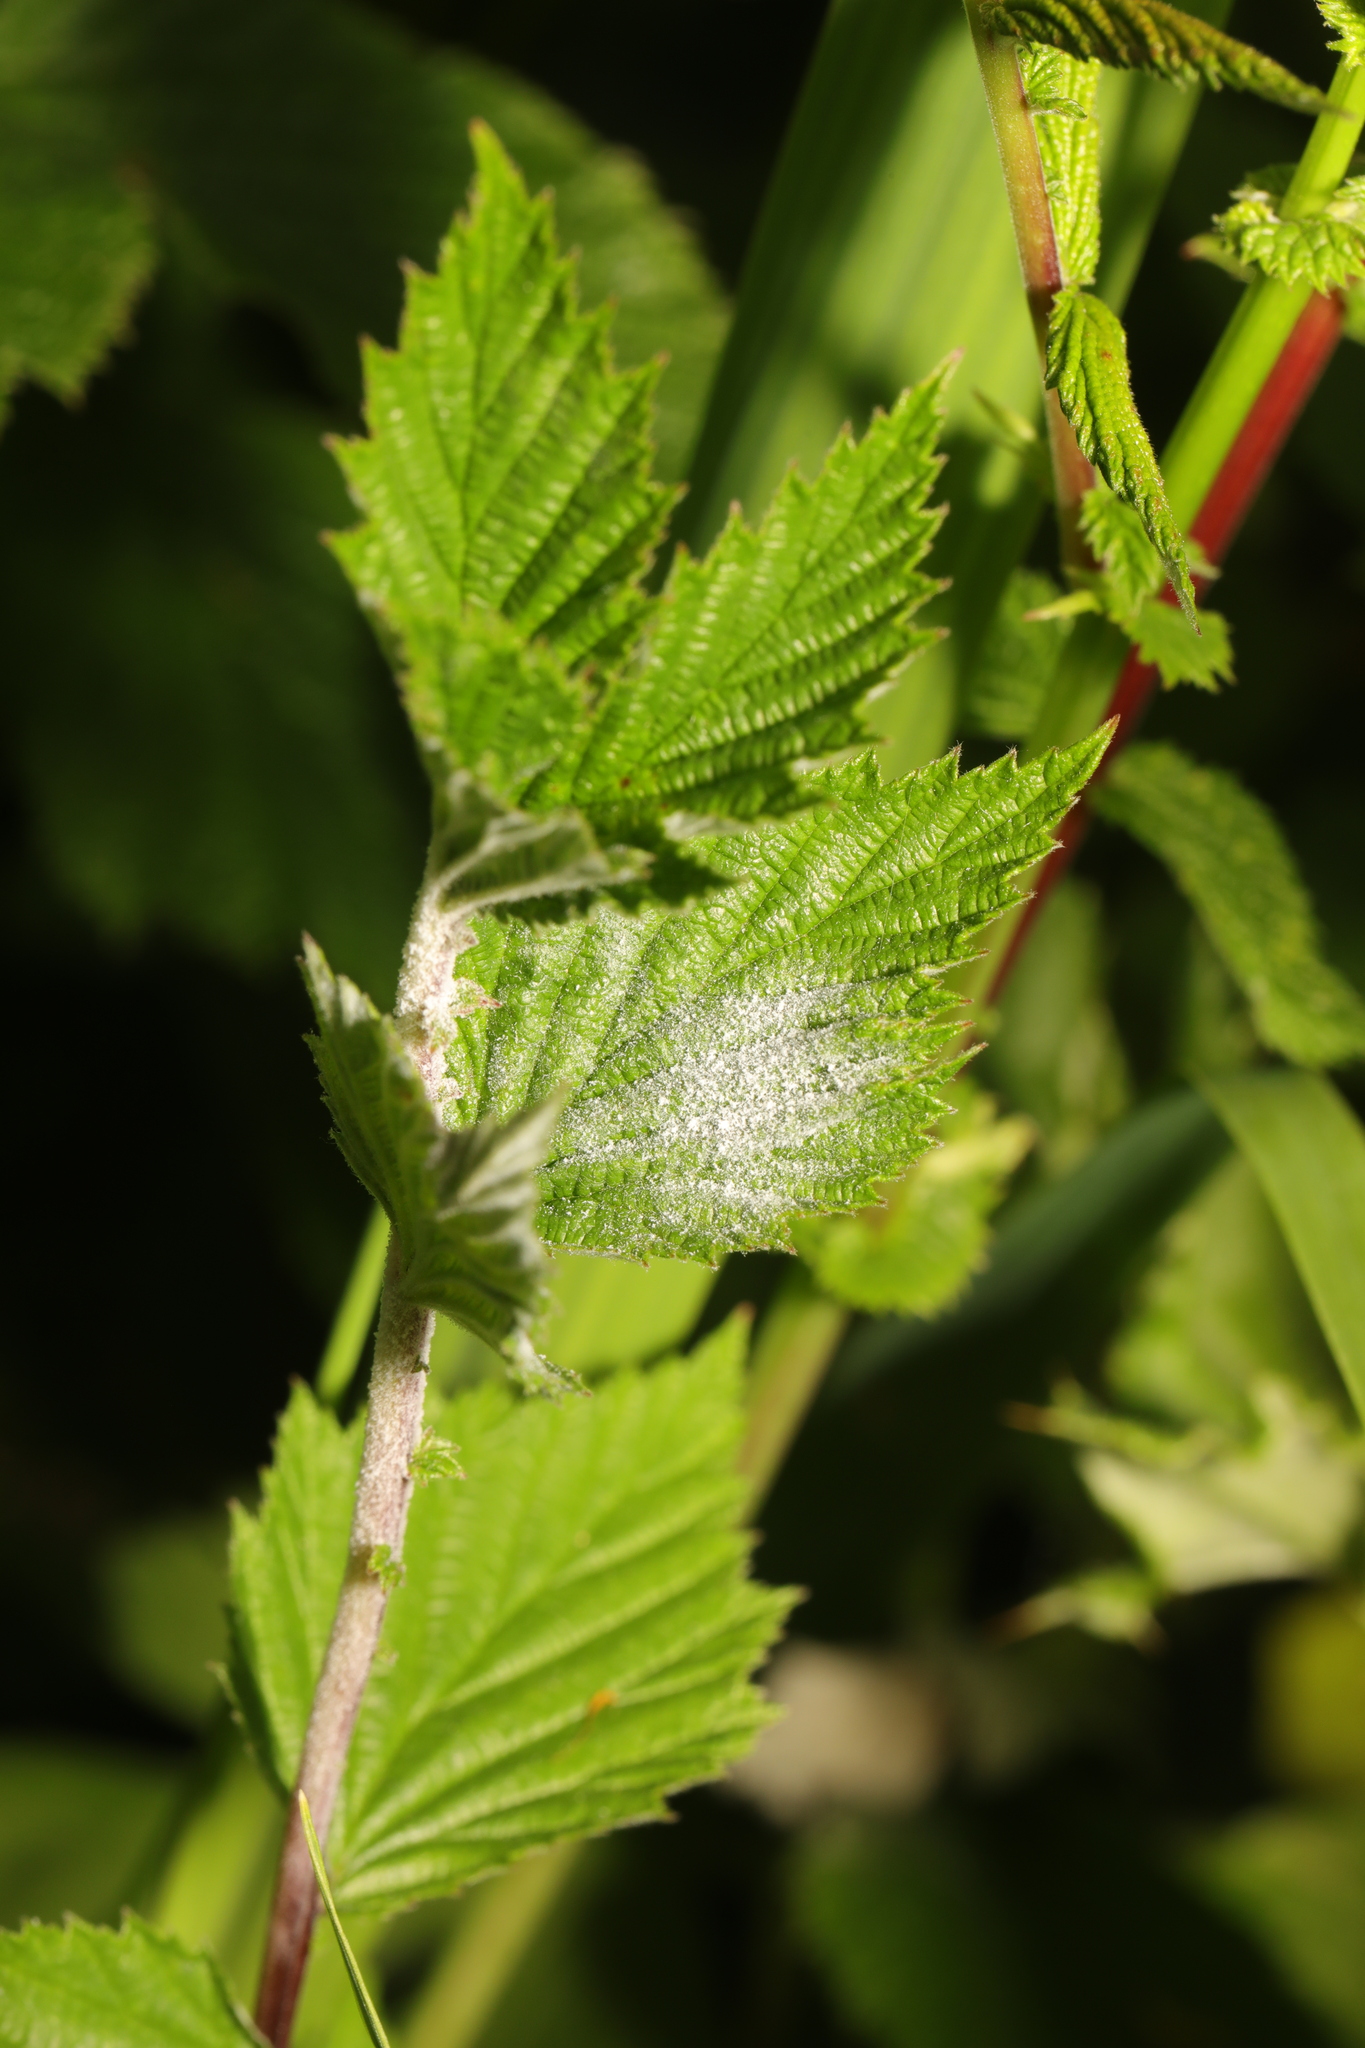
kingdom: Fungi
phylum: Ascomycota
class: Leotiomycetes
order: Helotiales
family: Erysiphaceae
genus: Podosphaera
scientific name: Podosphaera filipendulae
